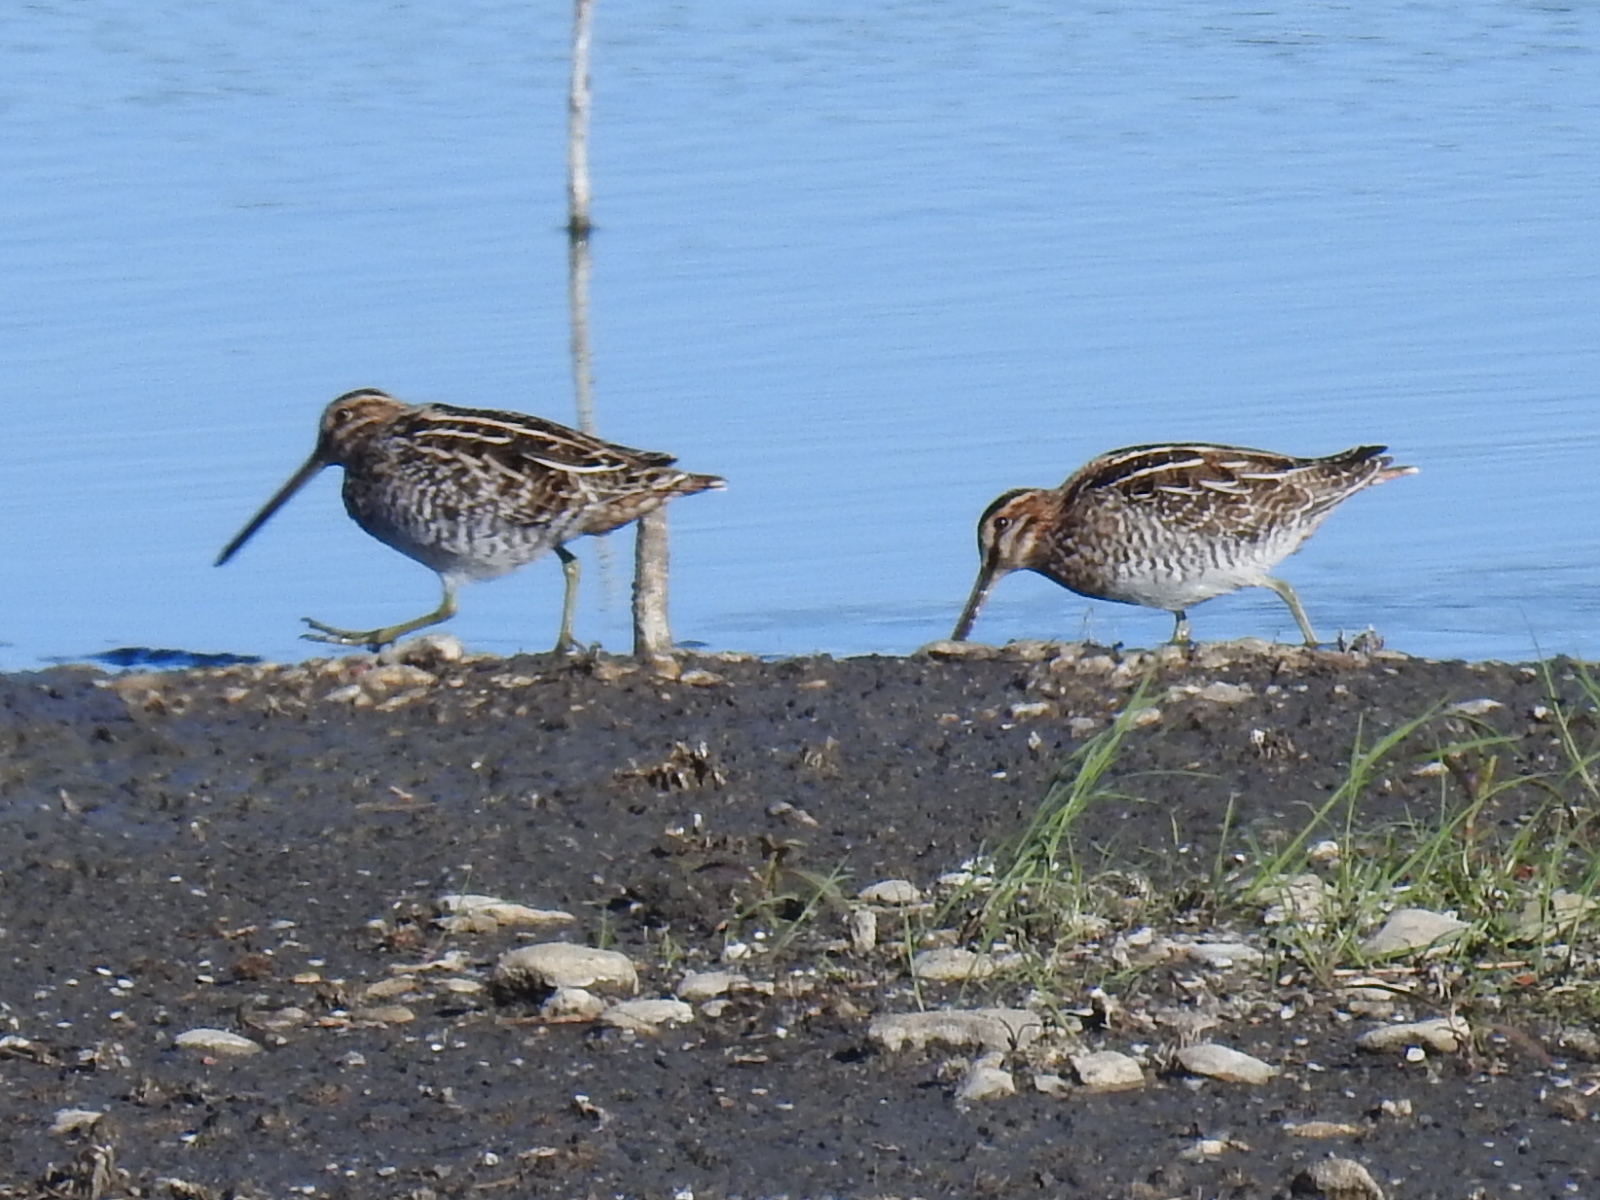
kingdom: Animalia
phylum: Chordata
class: Aves
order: Charadriiformes
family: Scolopacidae
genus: Gallinago
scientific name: Gallinago delicata
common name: Wilson's snipe
